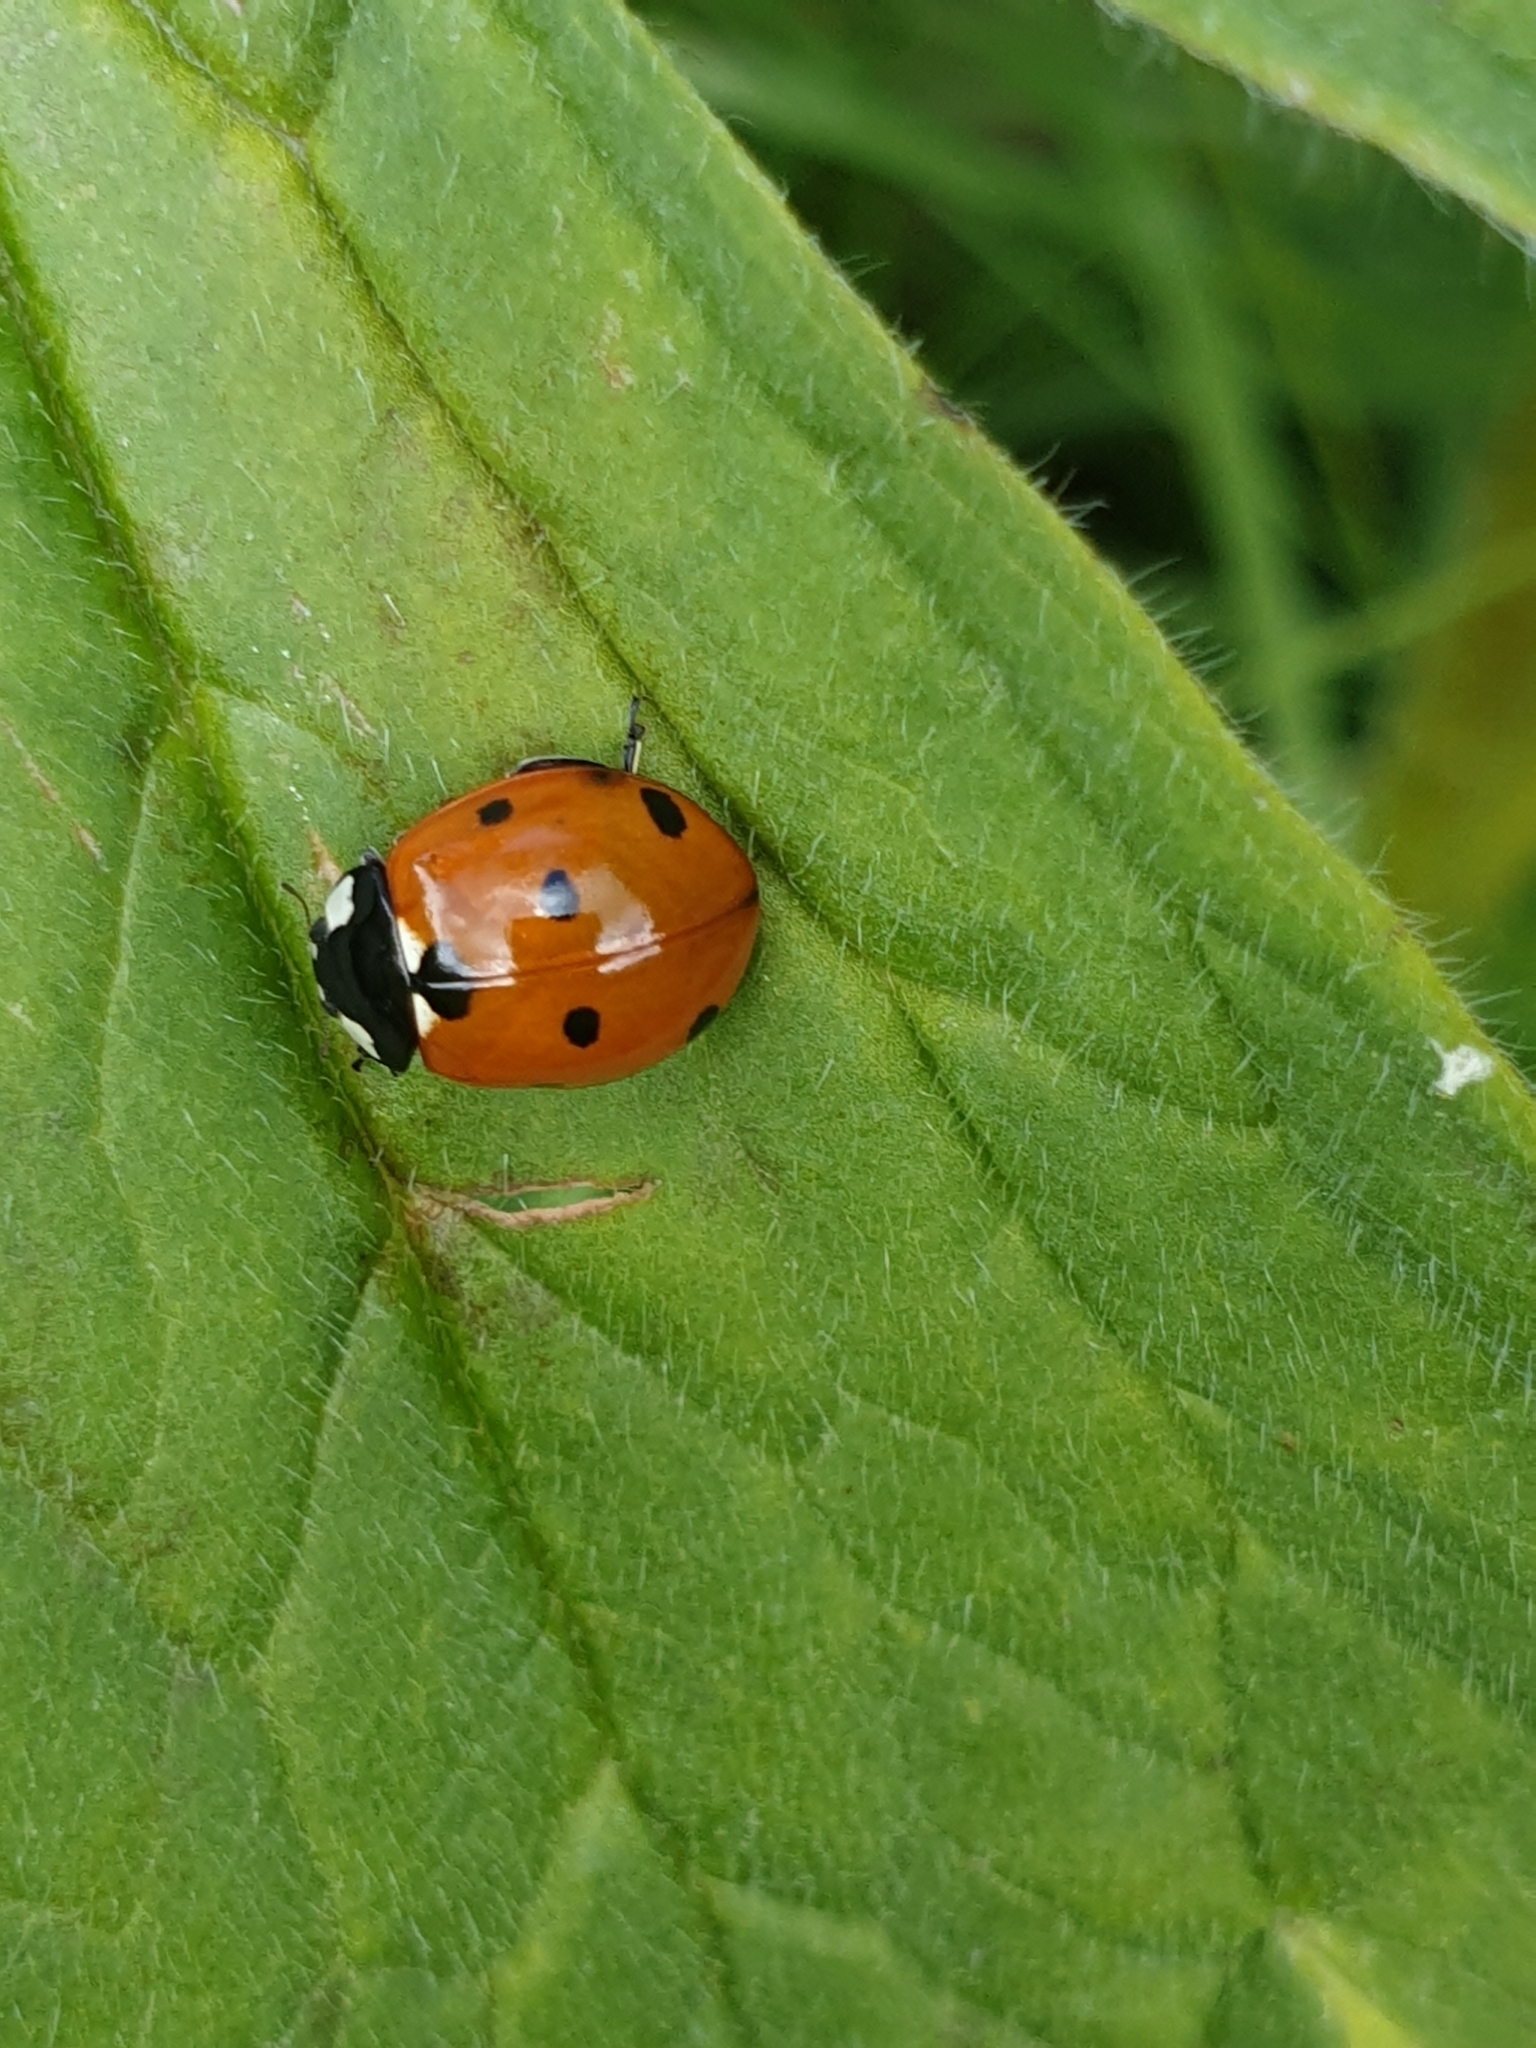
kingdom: Animalia
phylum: Arthropoda
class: Insecta
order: Coleoptera
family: Coccinellidae
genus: Coccinella
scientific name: Coccinella septempunctata
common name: Sevenspotted lady beetle
